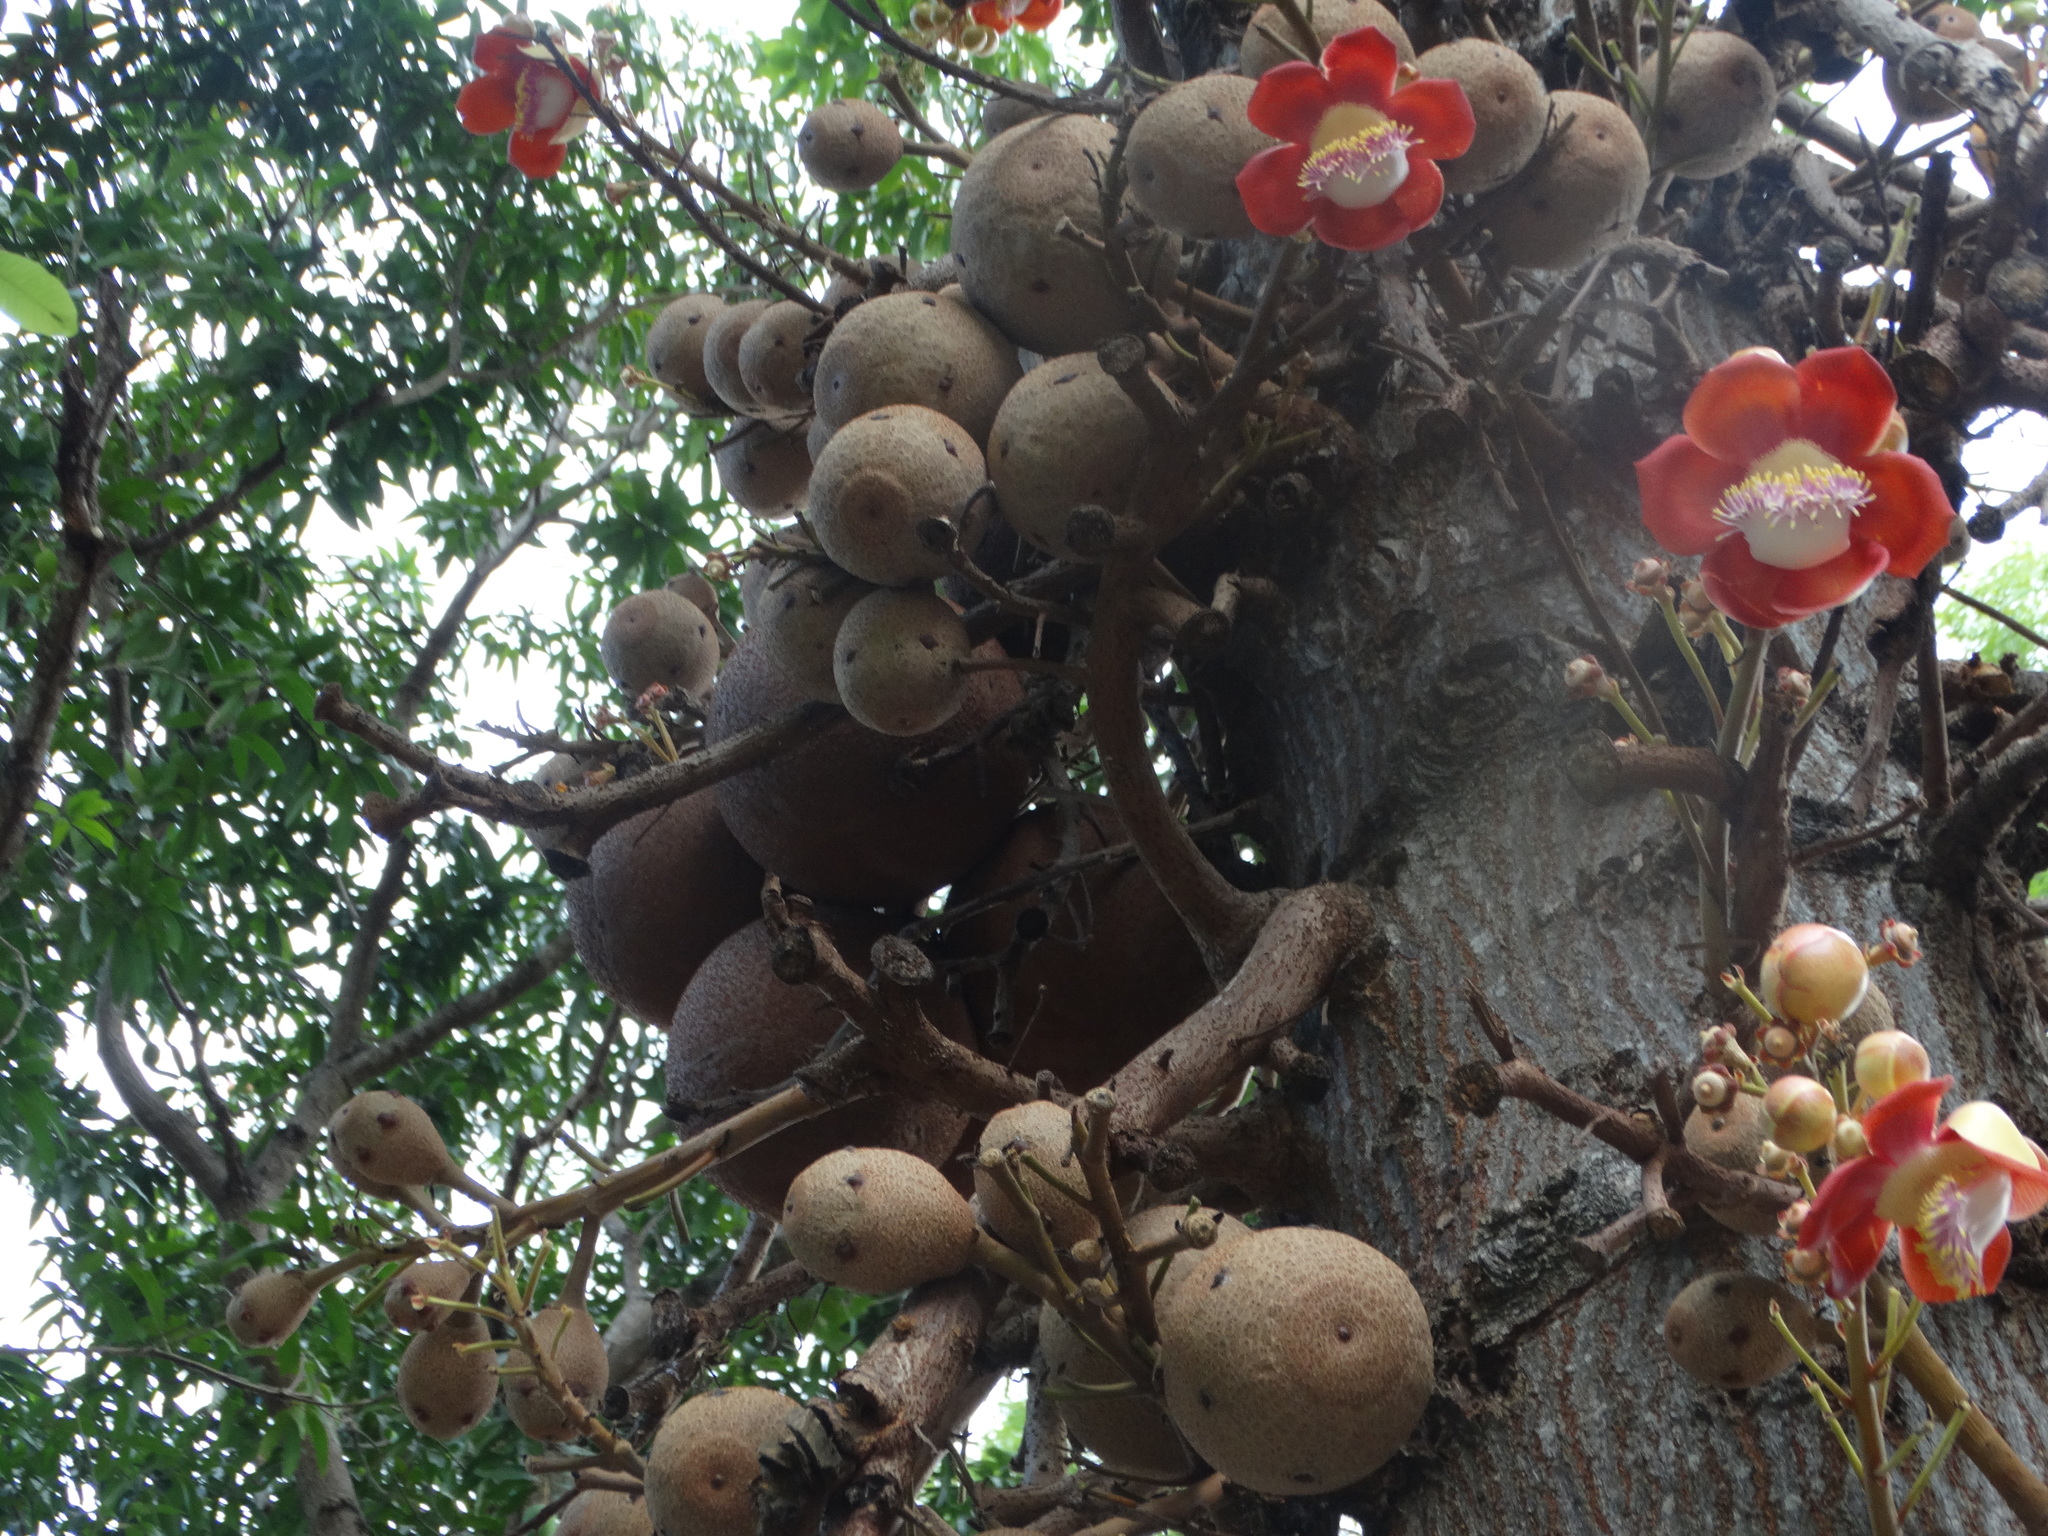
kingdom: Plantae
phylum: Tracheophyta
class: Magnoliopsida
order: Ericales
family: Lecythidaceae
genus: Couroupita
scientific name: Couroupita guianensis
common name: Cannonball tree
